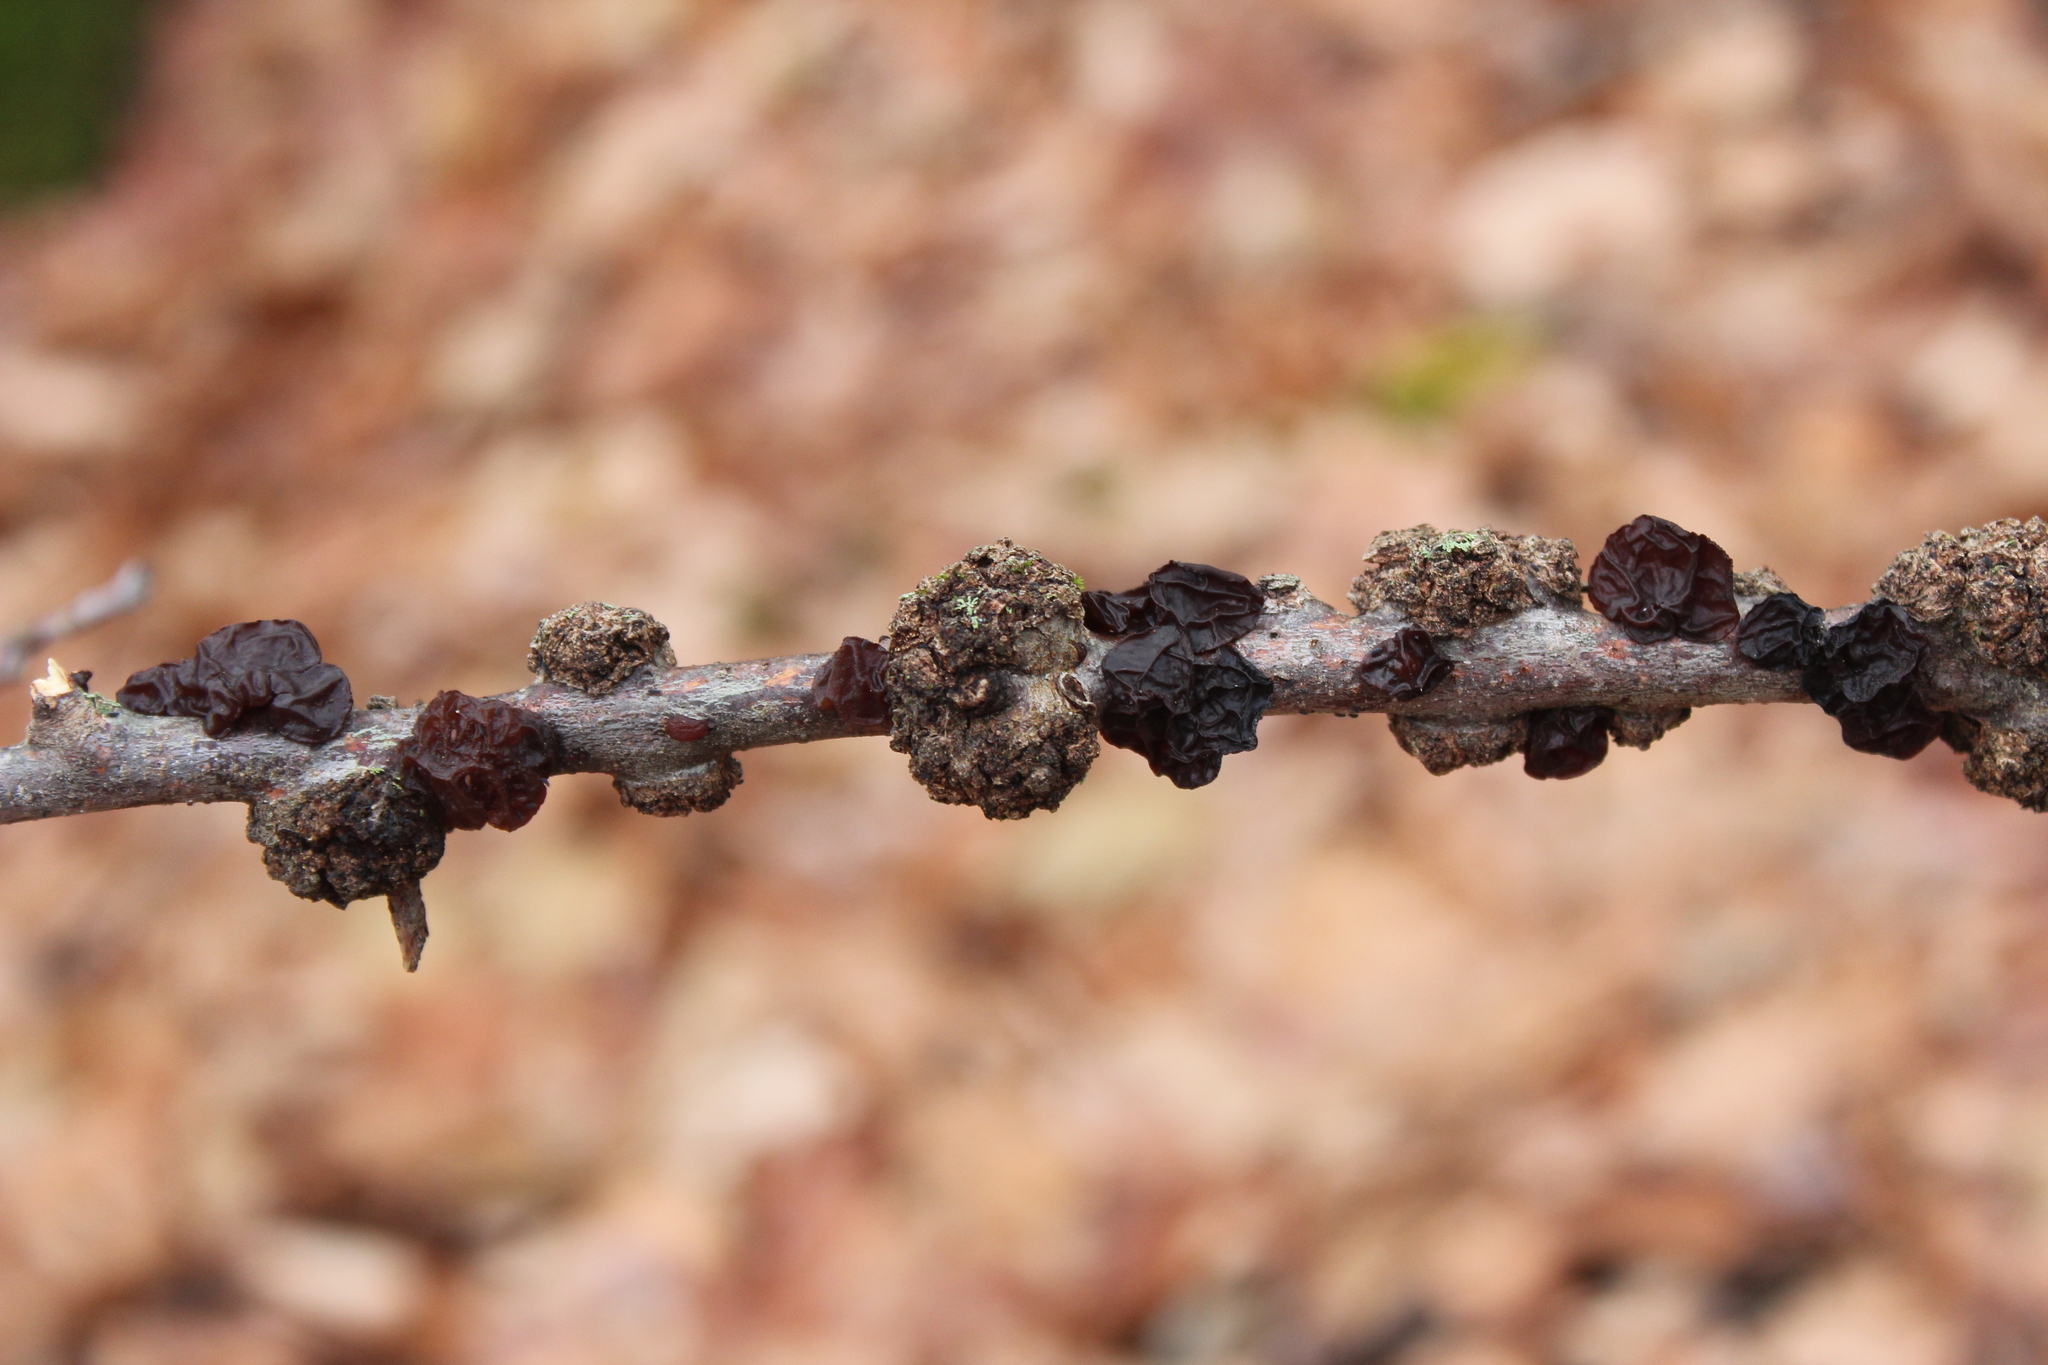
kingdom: Fungi
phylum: Basidiomycota
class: Agaricomycetes
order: Auriculariales
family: Auriculariaceae
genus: Exidia
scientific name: Exidia
